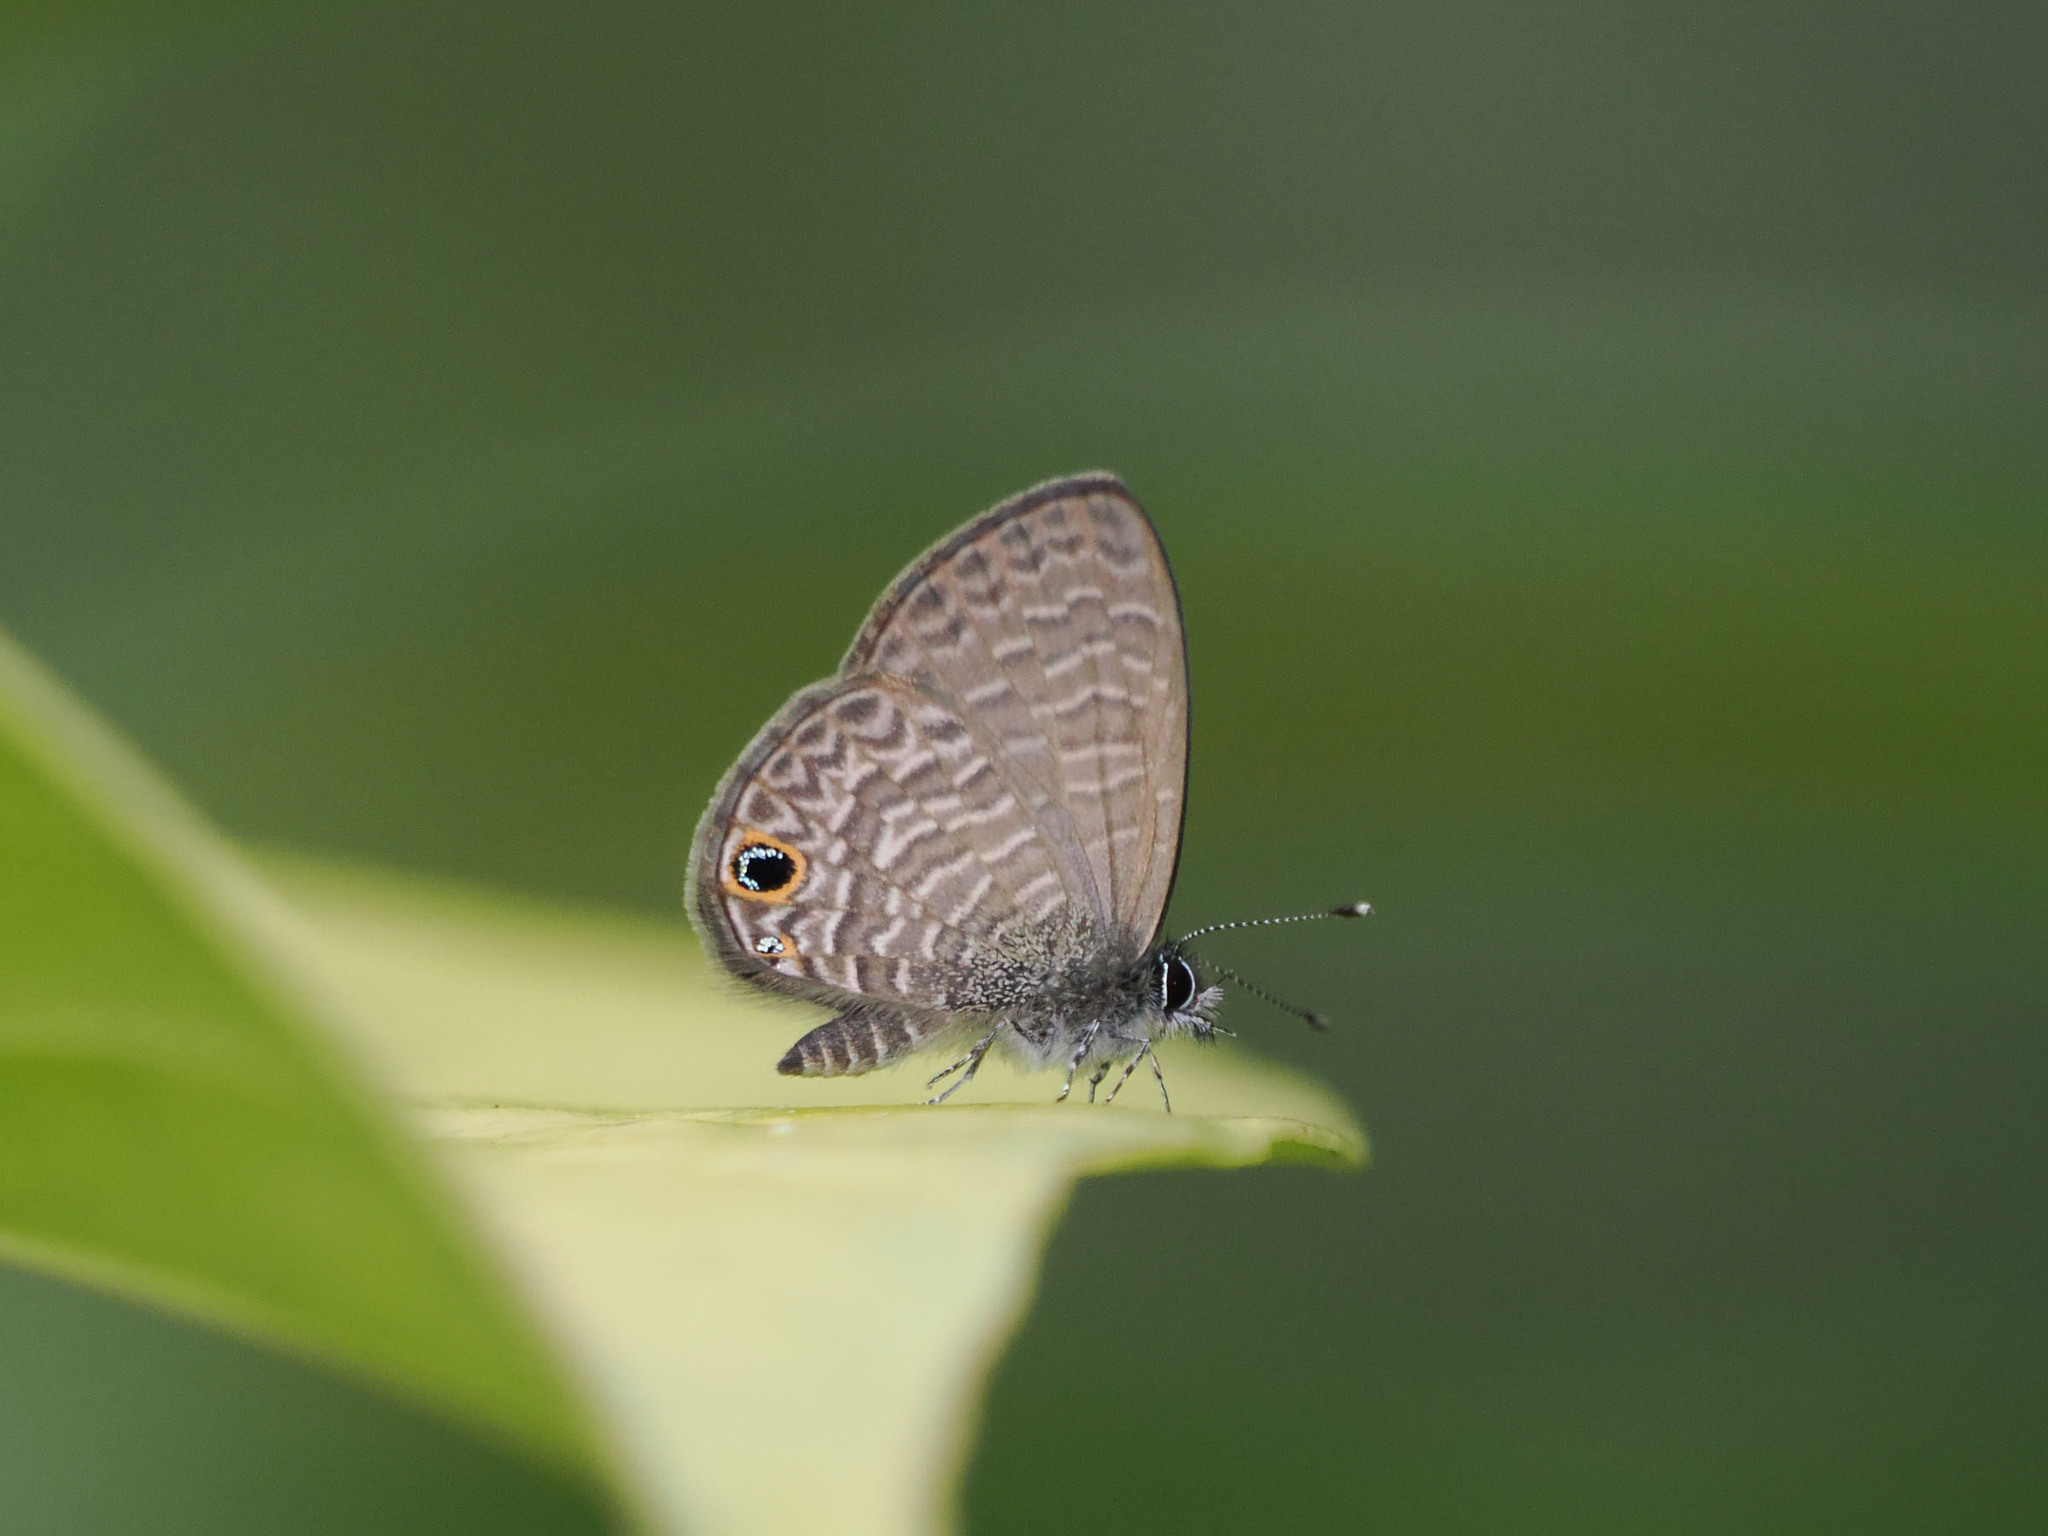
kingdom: Animalia
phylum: Arthropoda
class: Insecta
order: Lepidoptera
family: Lycaenidae
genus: Prosotas
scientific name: Prosotas dubiosa
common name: Tailless lineblue
